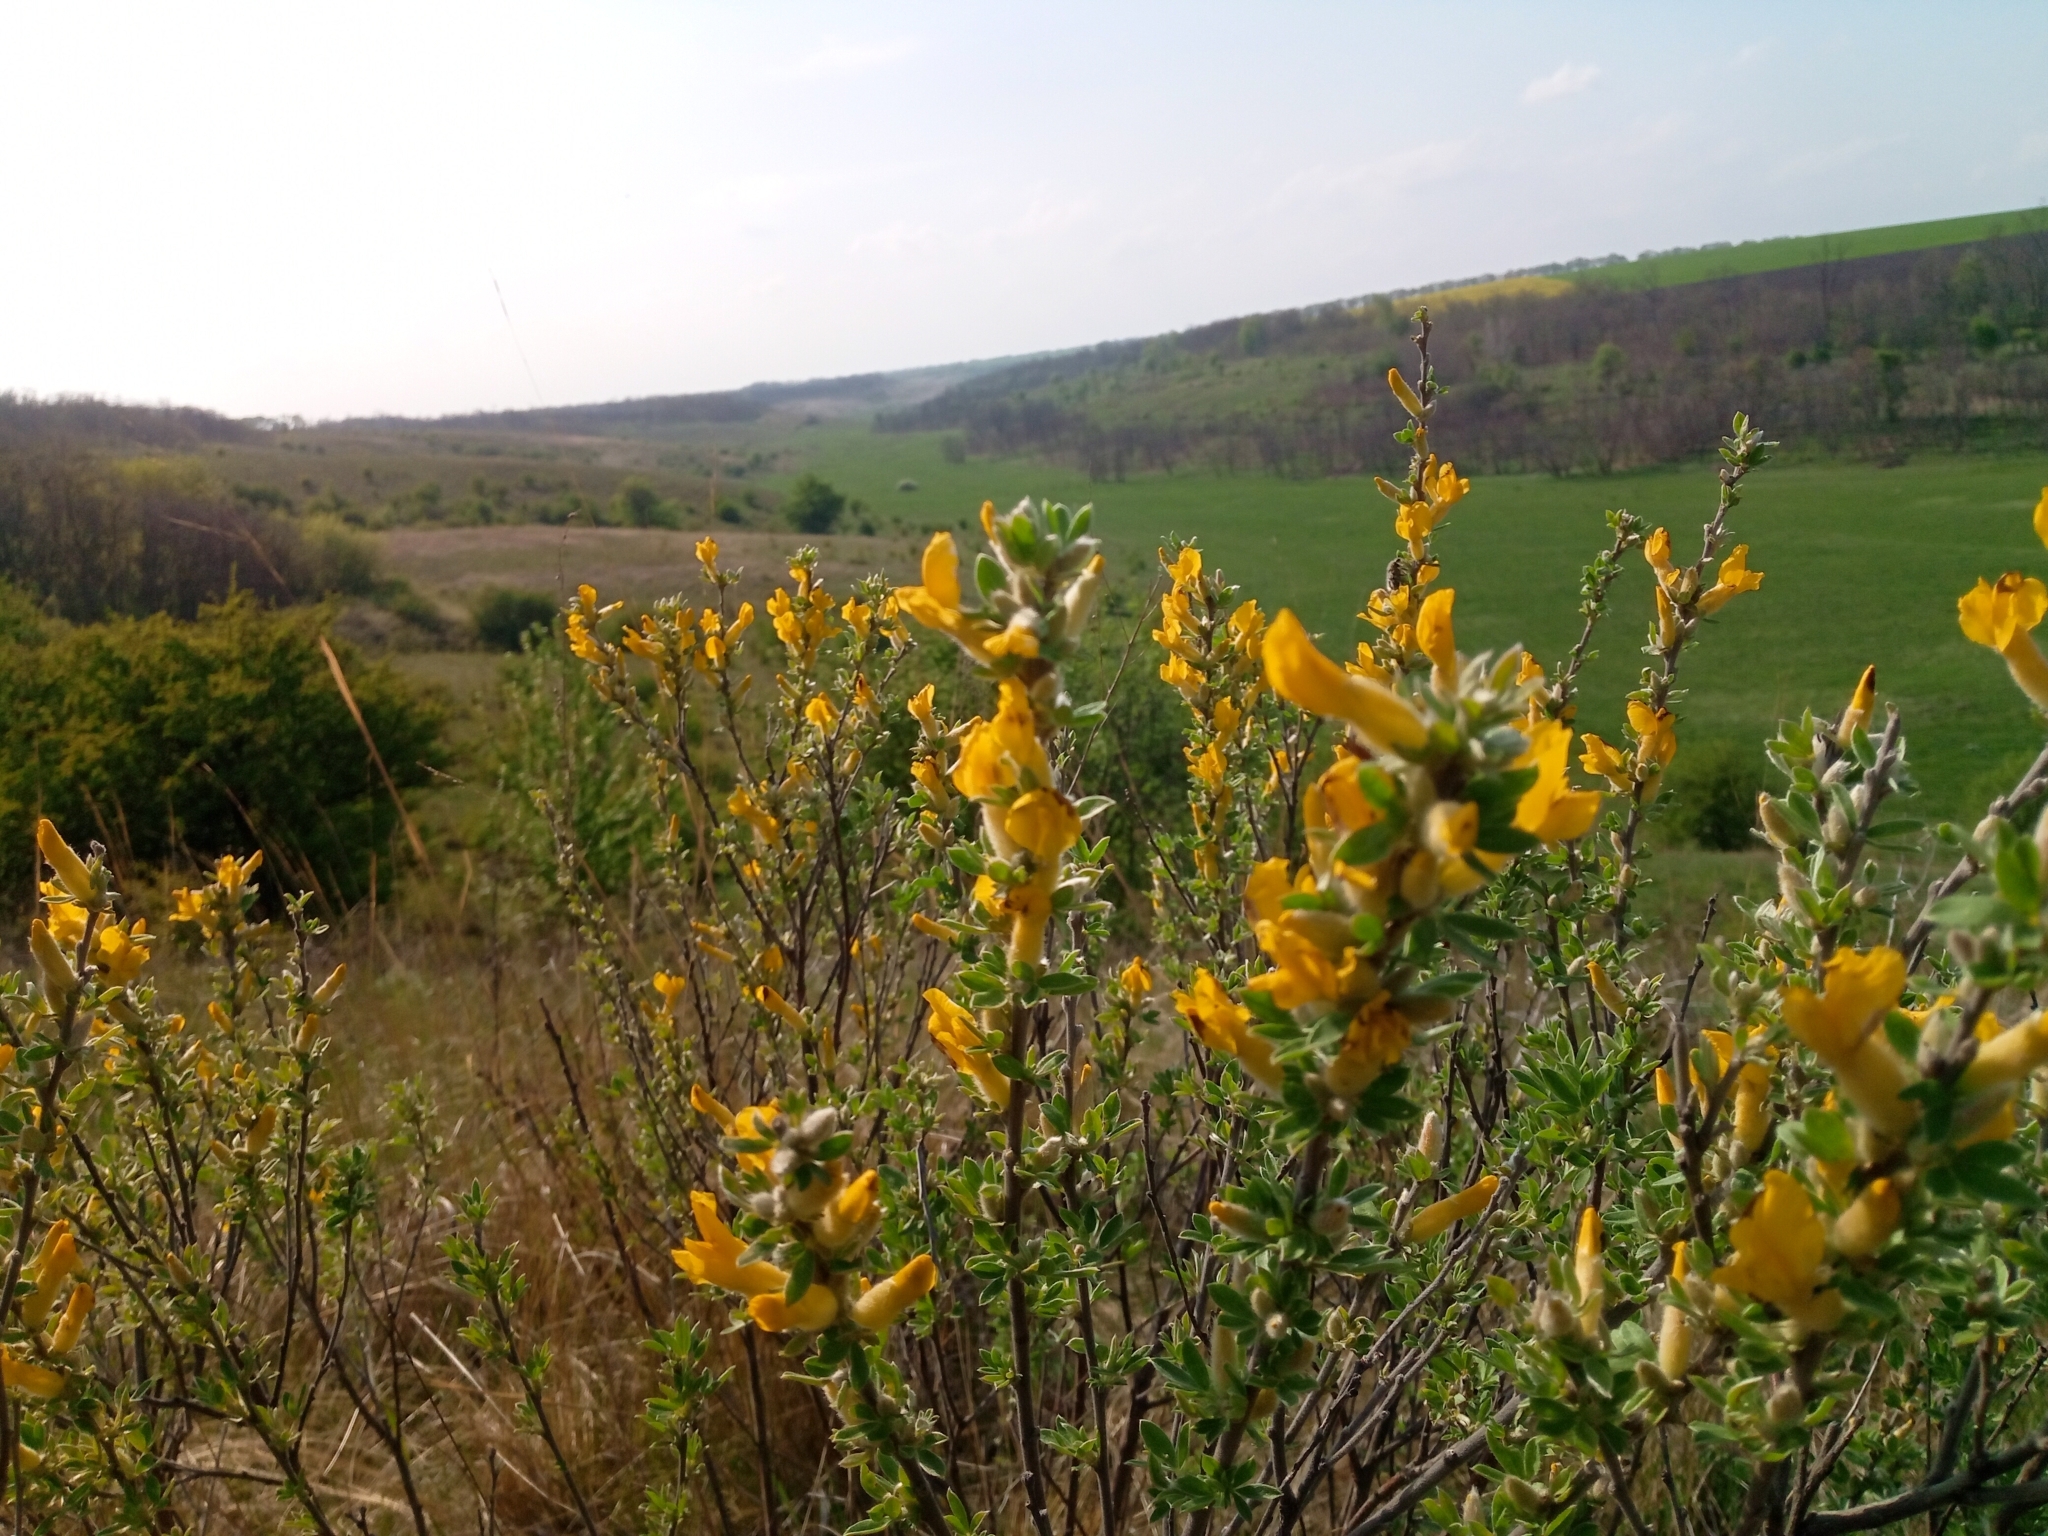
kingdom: Plantae
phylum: Tracheophyta
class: Magnoliopsida
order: Fabales
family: Fabaceae
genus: Chamaecytisus
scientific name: Chamaecytisus ruthenicus
